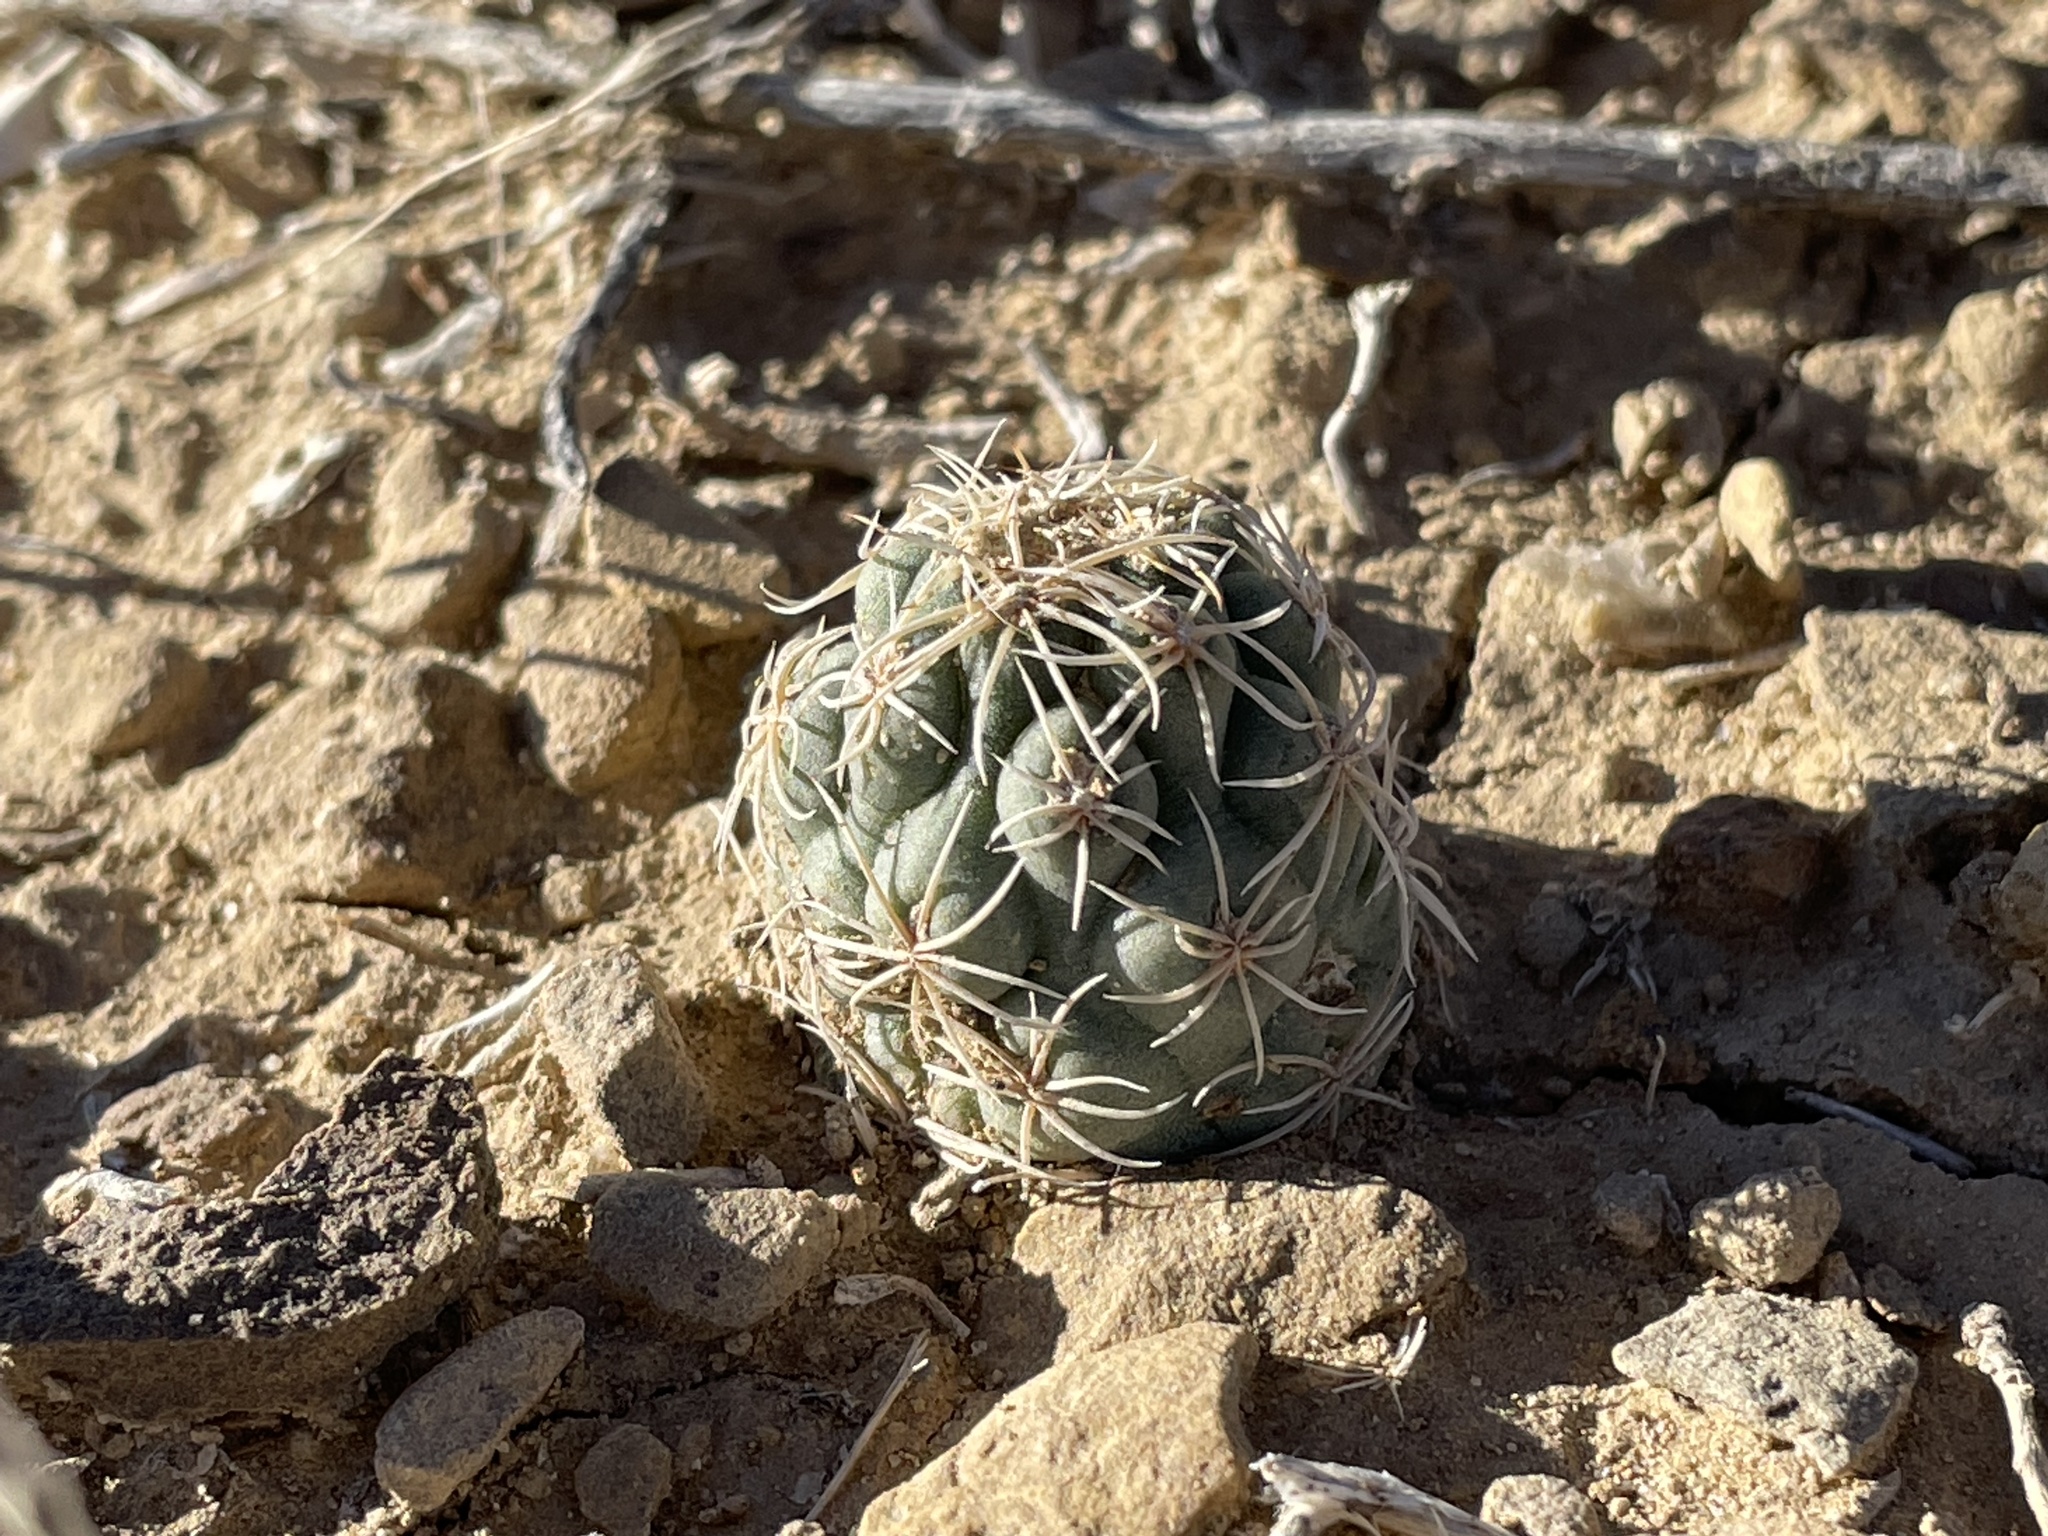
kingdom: Plantae
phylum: Tracheophyta
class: Magnoliopsida
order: Caryophyllales
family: Cactaceae
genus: Sclerocactus
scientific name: Sclerocactus mesae-verdae
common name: Mesa verde cactus
